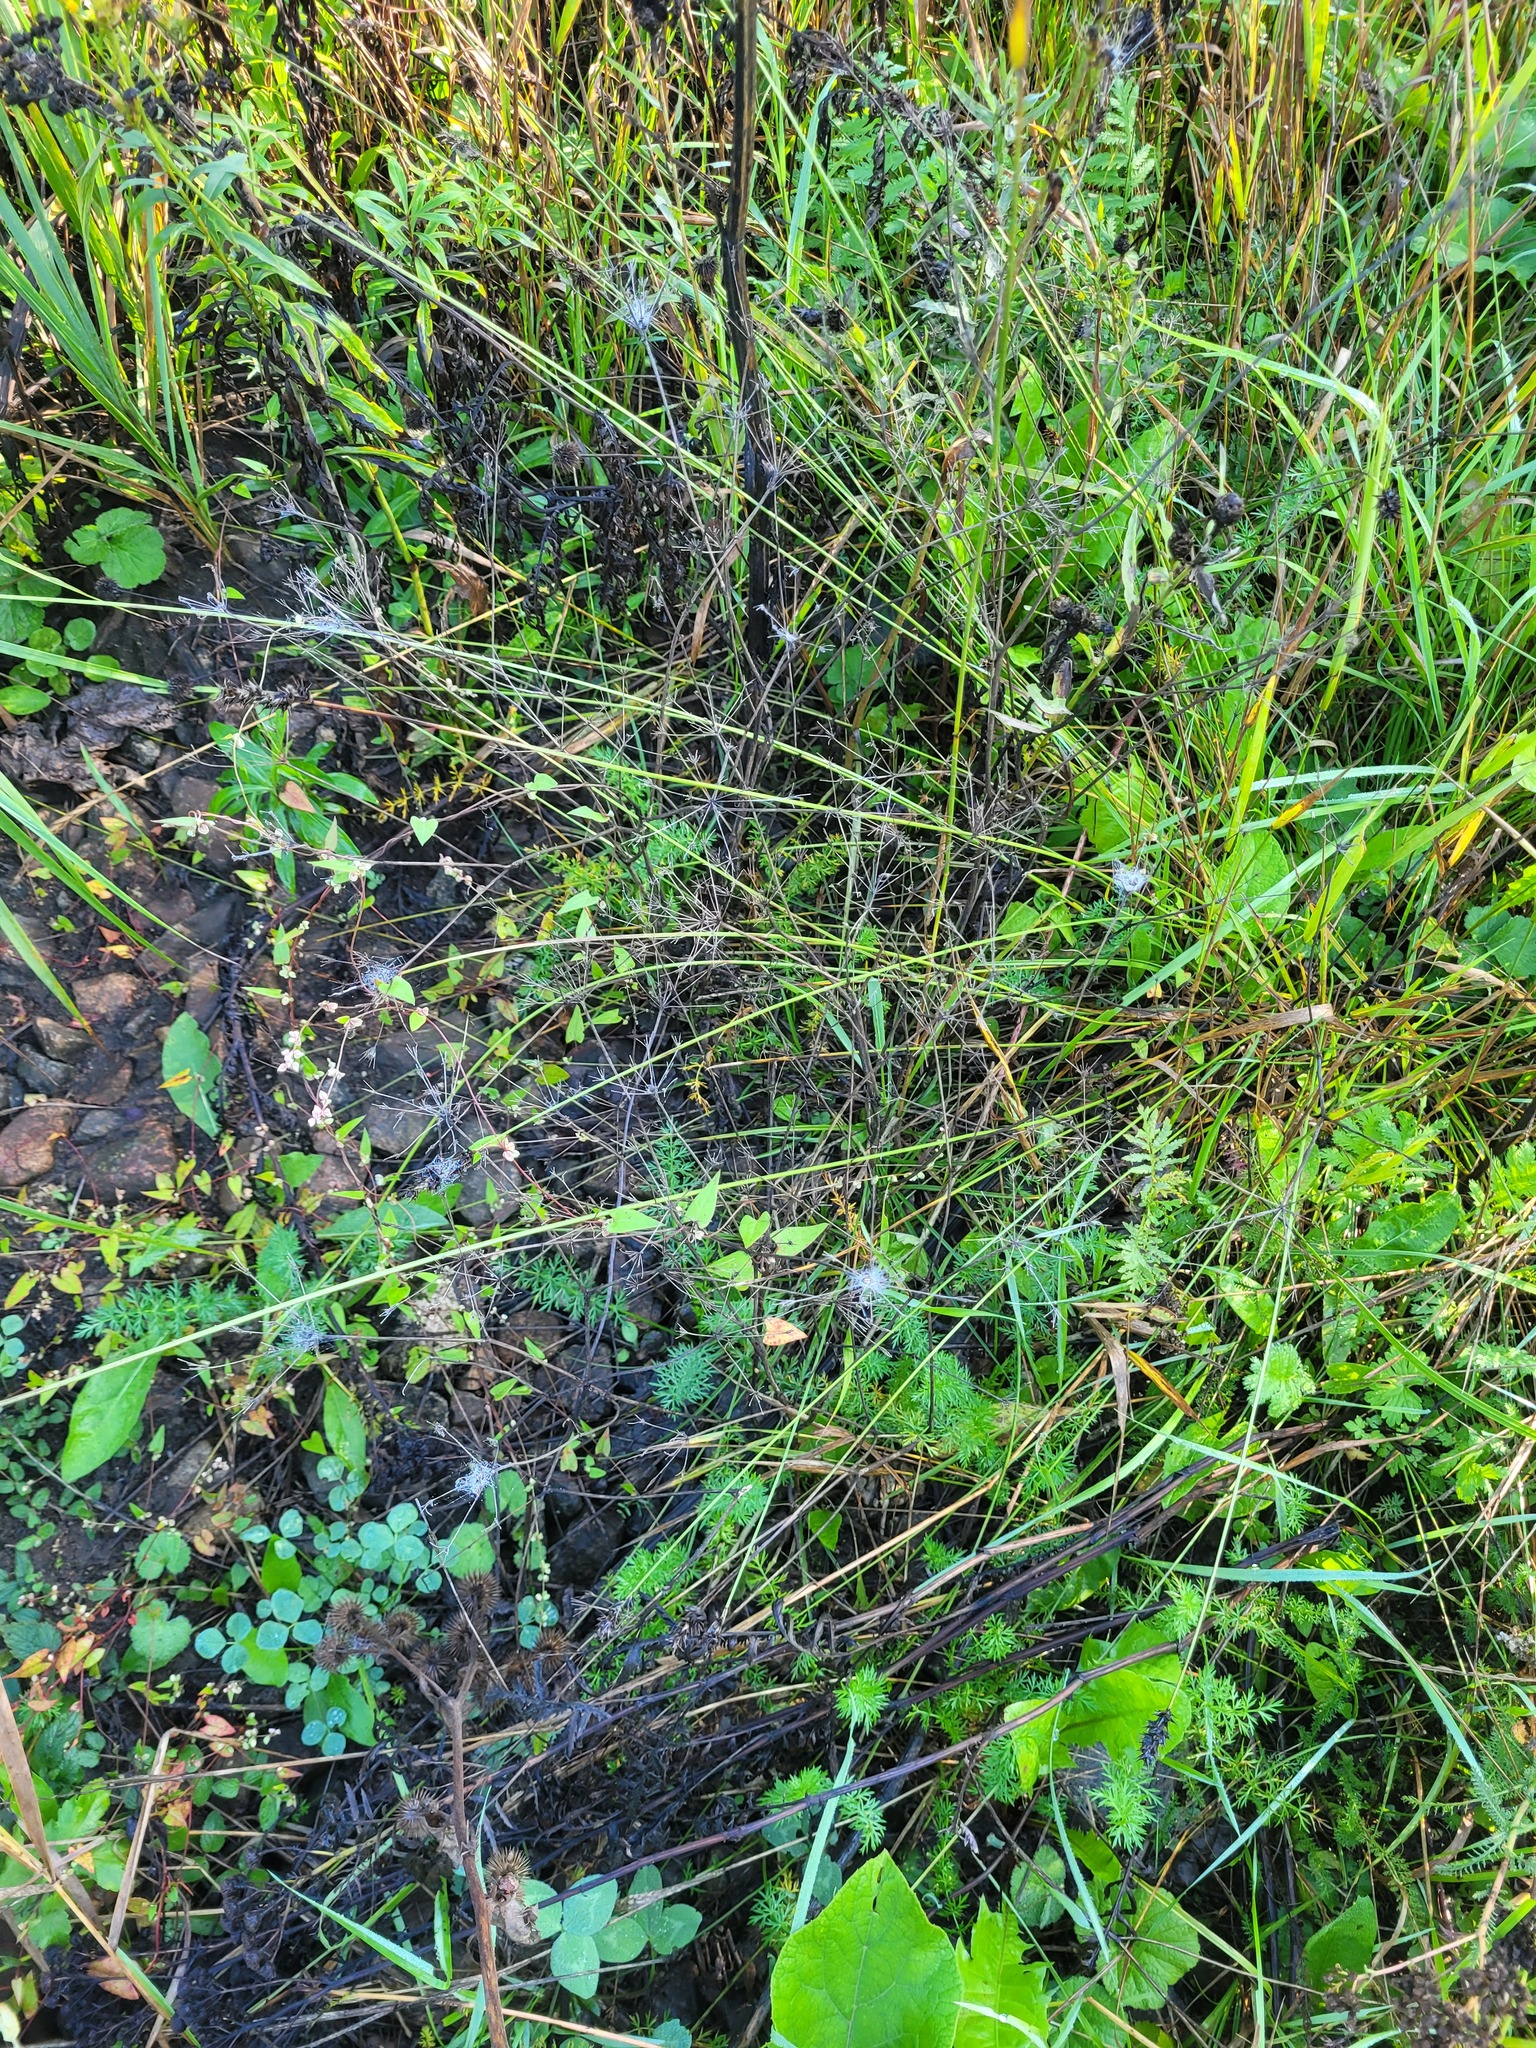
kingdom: Plantae
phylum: Tracheophyta
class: Liliopsida
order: Poales
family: Cyperaceae
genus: Carex
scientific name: Carex spicata
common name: Spiked sedge
